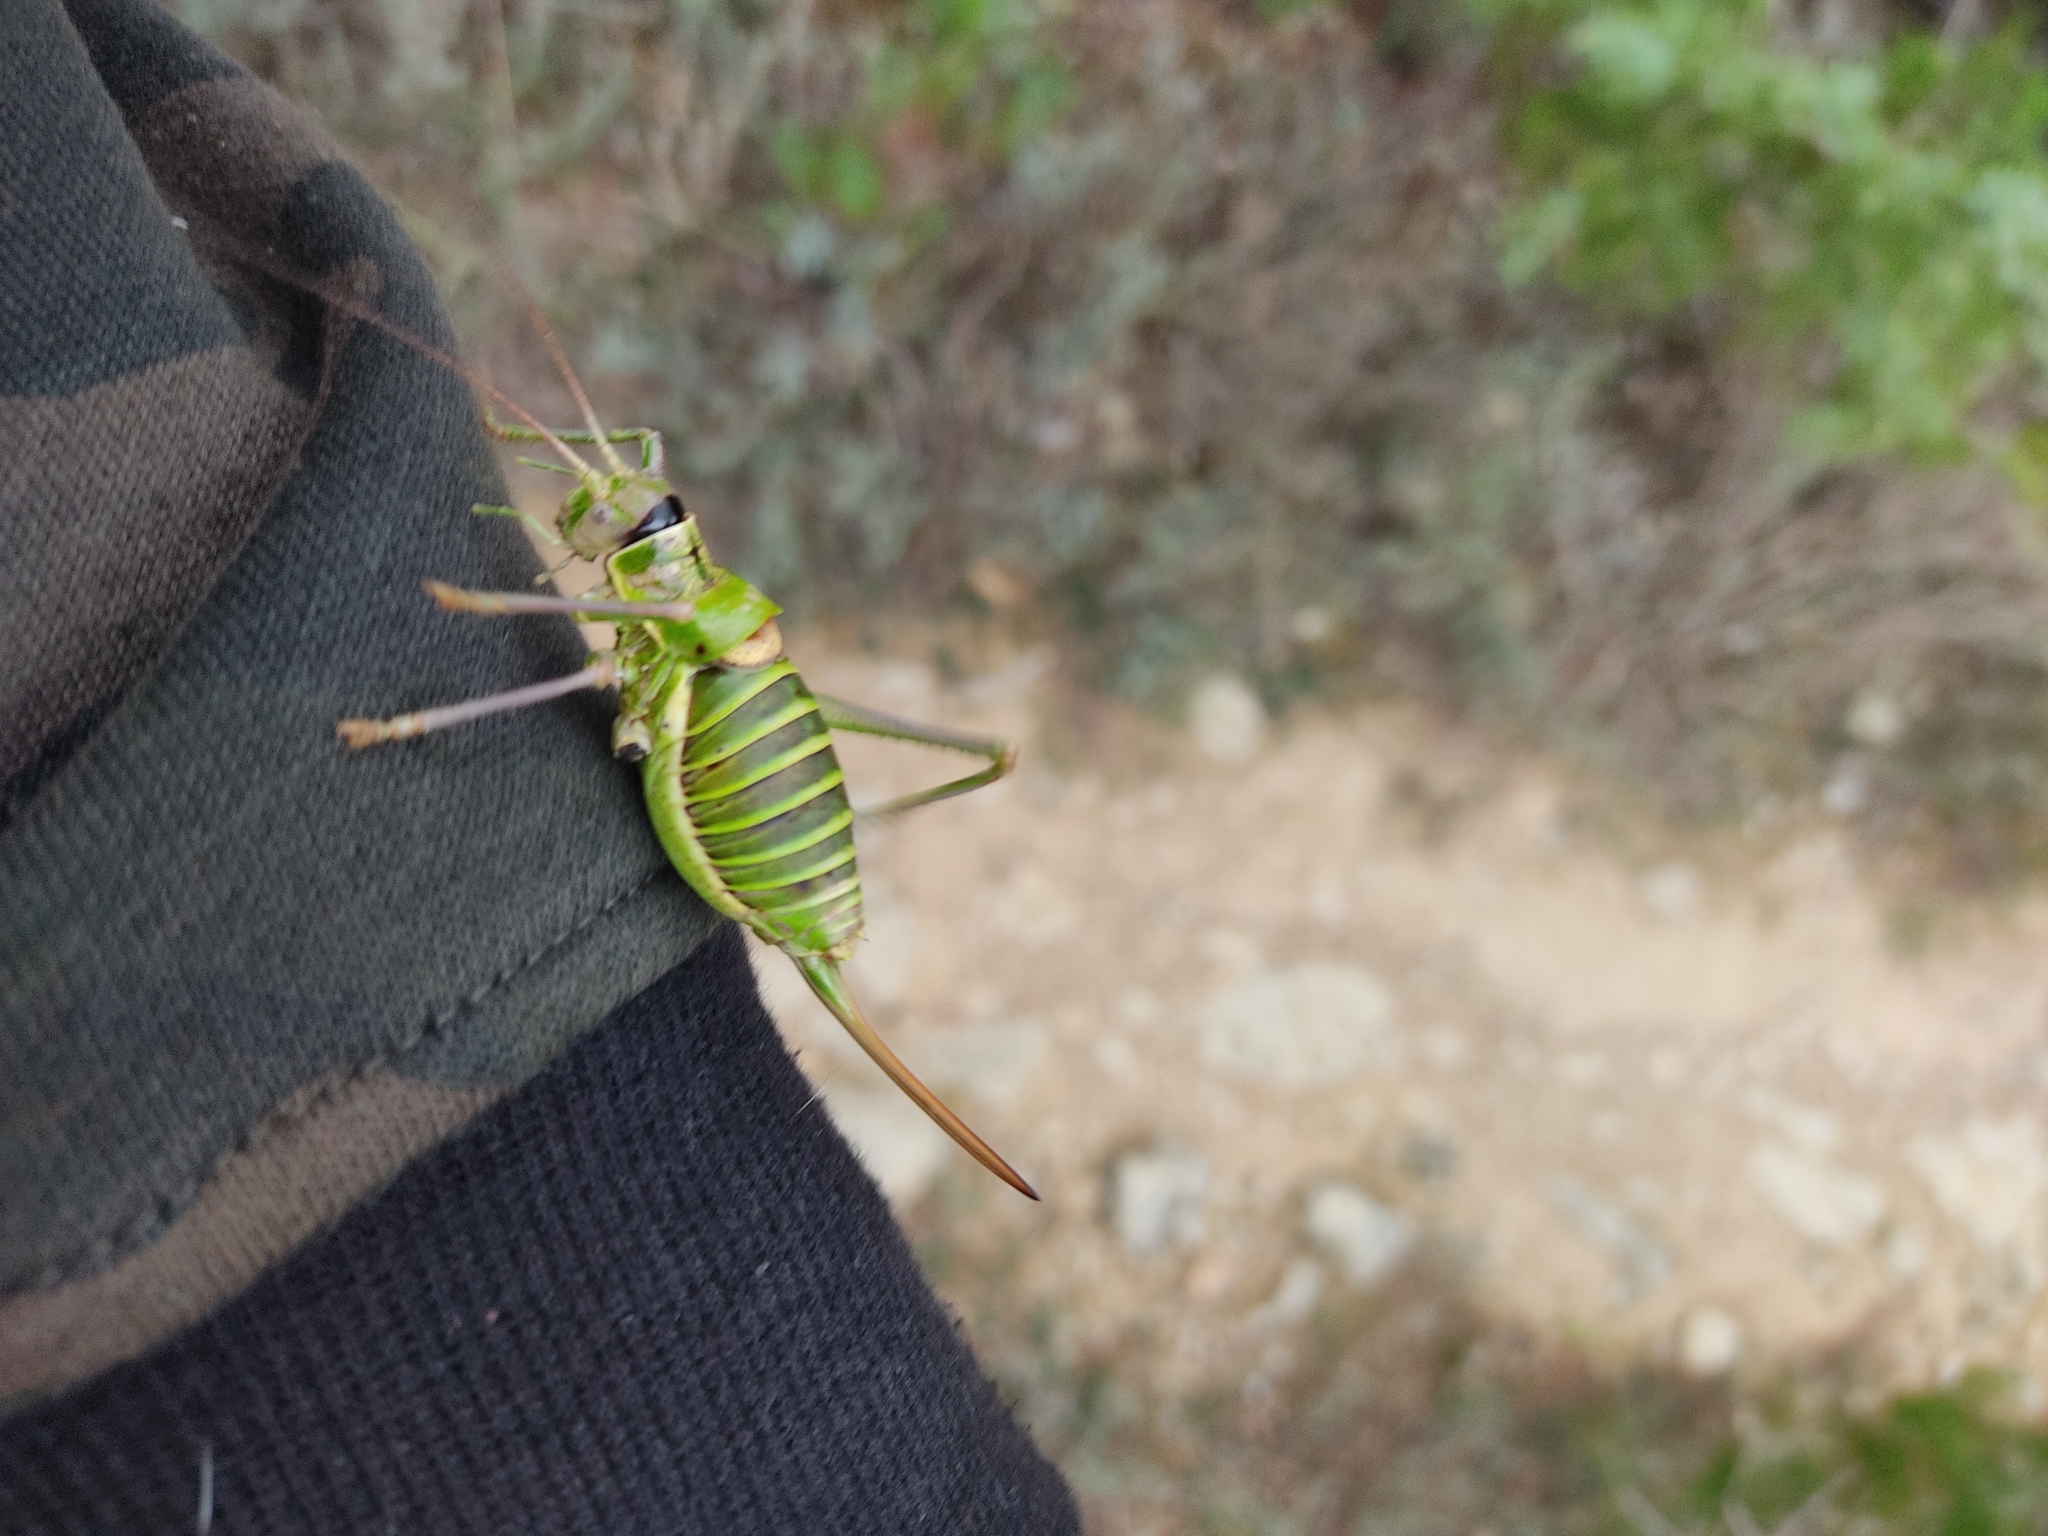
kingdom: Animalia
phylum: Arthropoda
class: Insecta
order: Orthoptera
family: Tettigoniidae
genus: Ephippiger
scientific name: Ephippiger diurnus
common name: Western saddle bush-cricket
